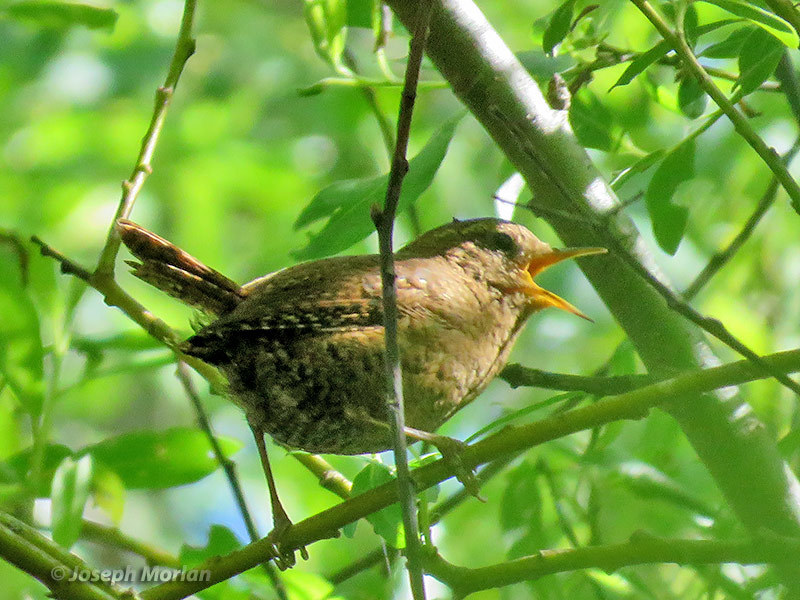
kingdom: Animalia
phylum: Chordata
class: Aves
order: Passeriformes
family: Troglodytidae
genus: Troglodytes
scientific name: Troglodytes pacificus
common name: Pacific wren
